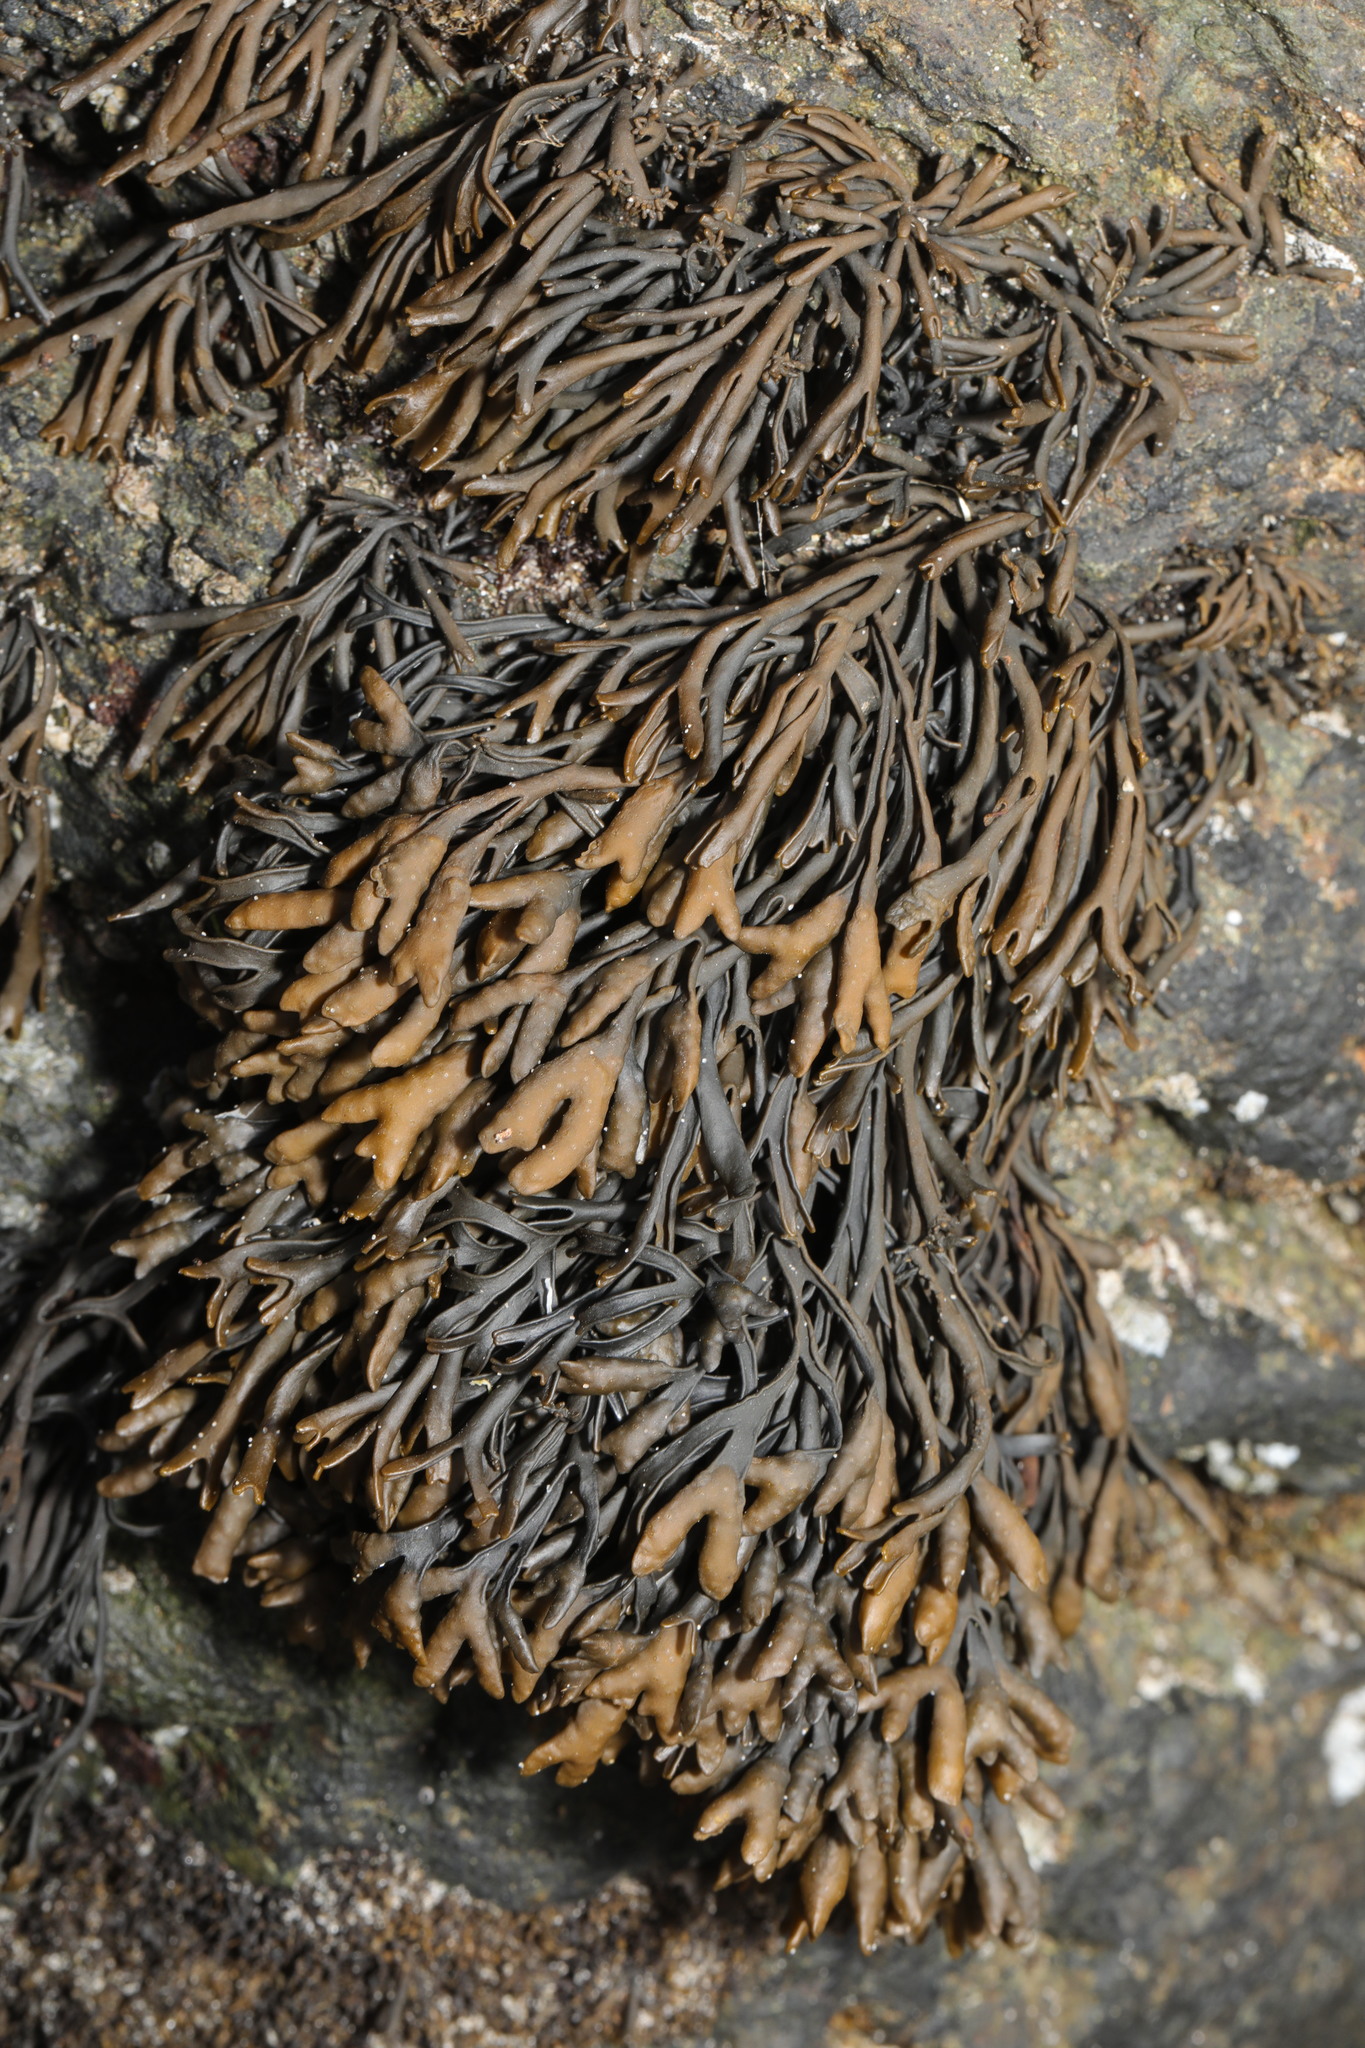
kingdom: Chromista
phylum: Ochrophyta
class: Phaeophyceae
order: Fucales
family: Fucaceae
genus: Pelvetia
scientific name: Pelvetia canaliculata
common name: Channelled wrack
